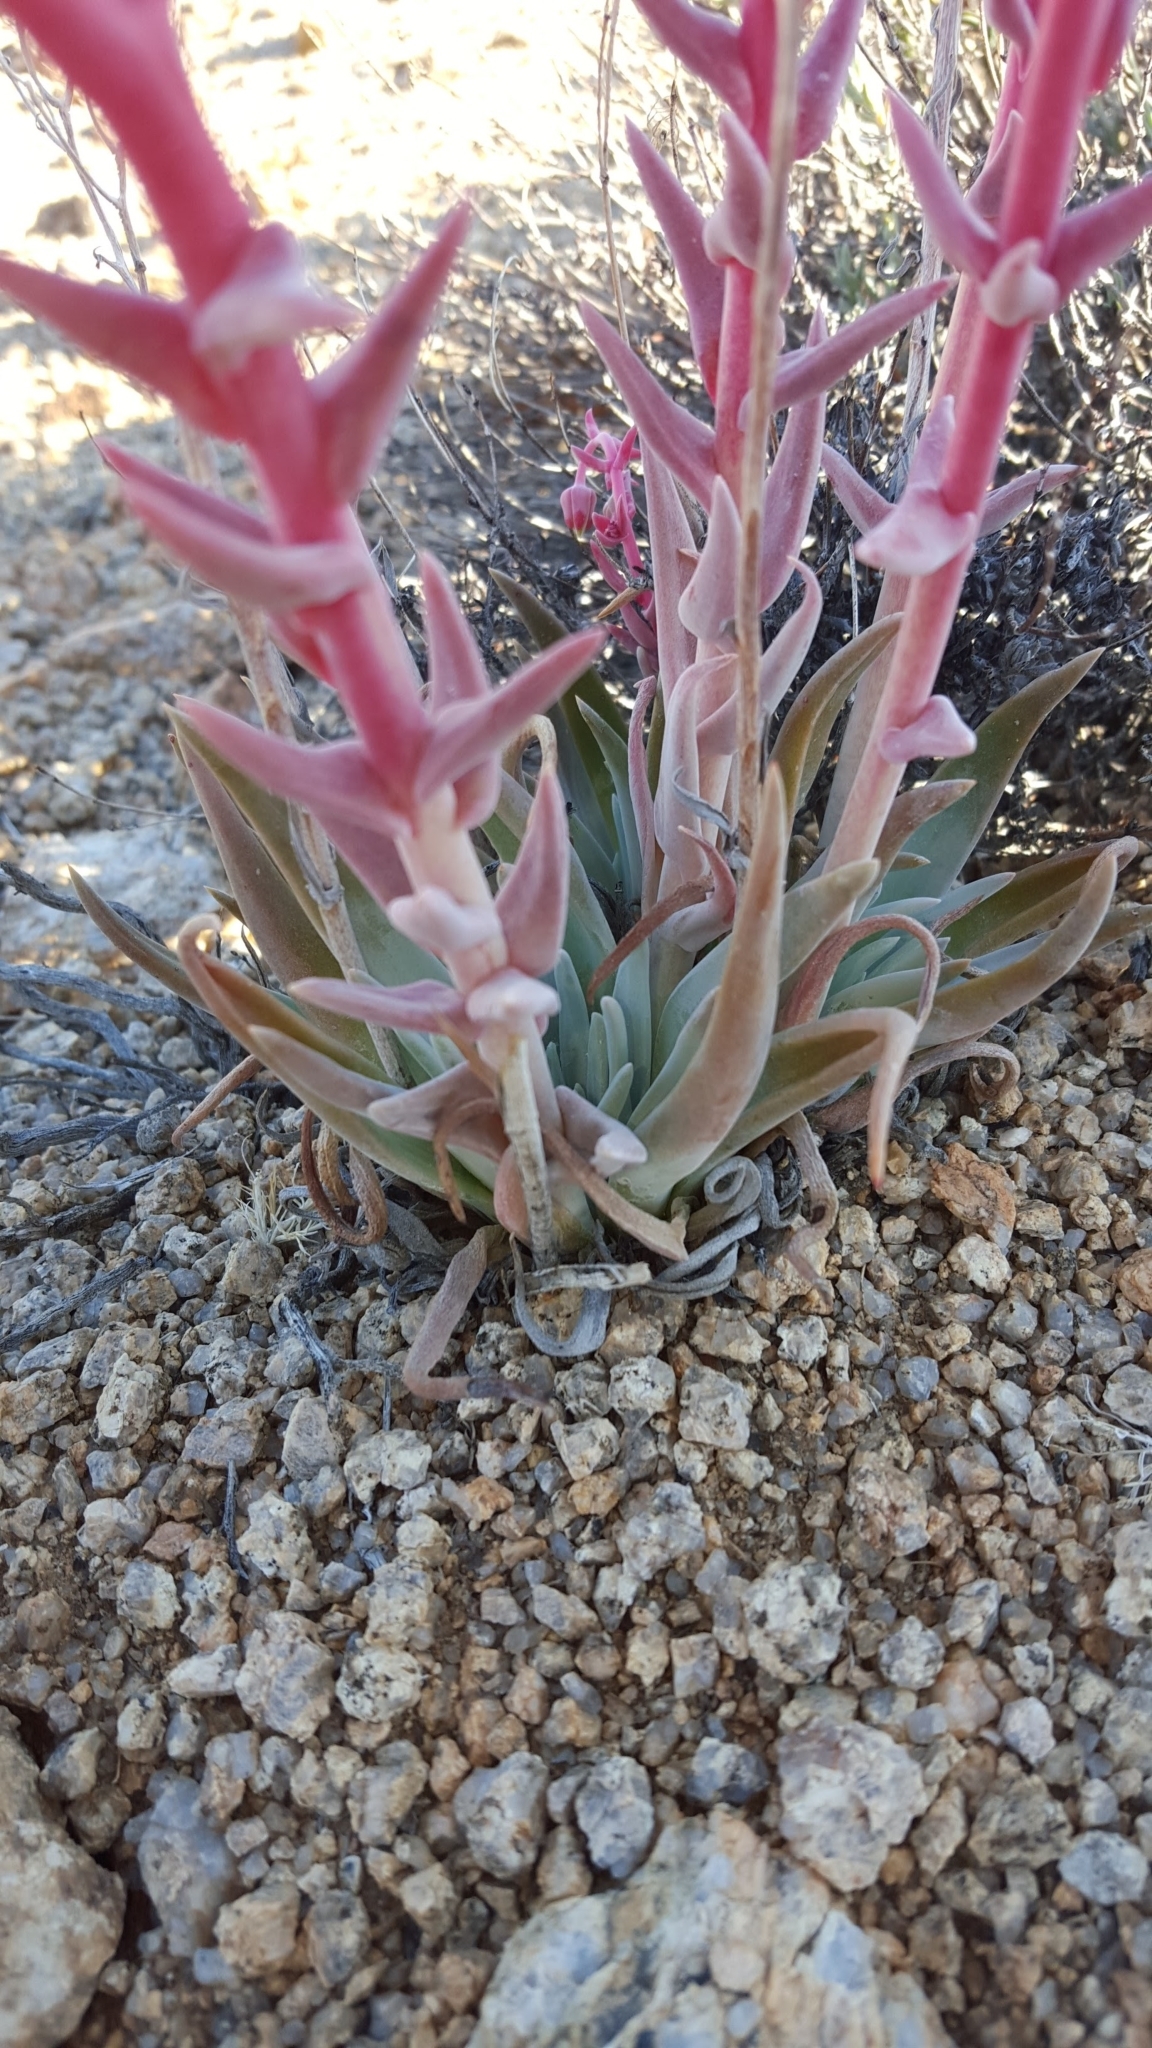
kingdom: Plantae
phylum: Tracheophyta
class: Magnoliopsida
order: Saxifragales
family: Crassulaceae
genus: Dudleya
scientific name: Dudleya saxosa
